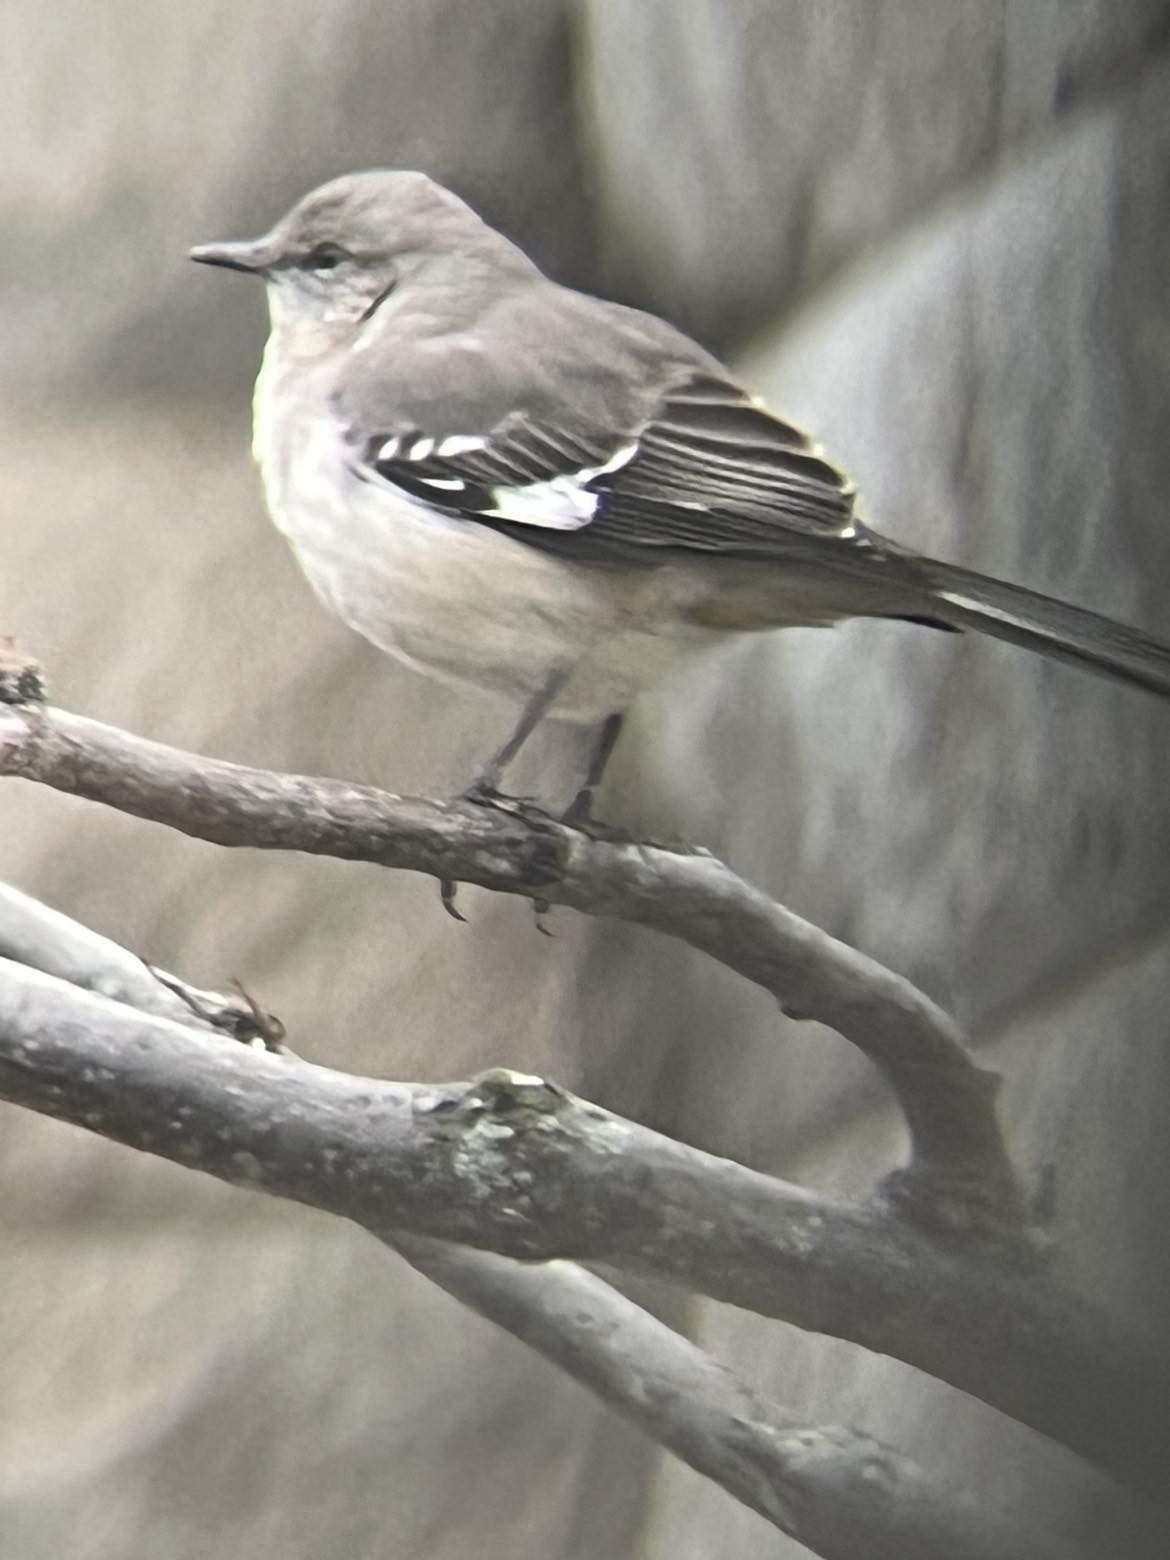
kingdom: Animalia
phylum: Chordata
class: Aves
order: Passeriformes
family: Mimidae
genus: Mimus
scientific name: Mimus polyglottos
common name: Northern mockingbird
